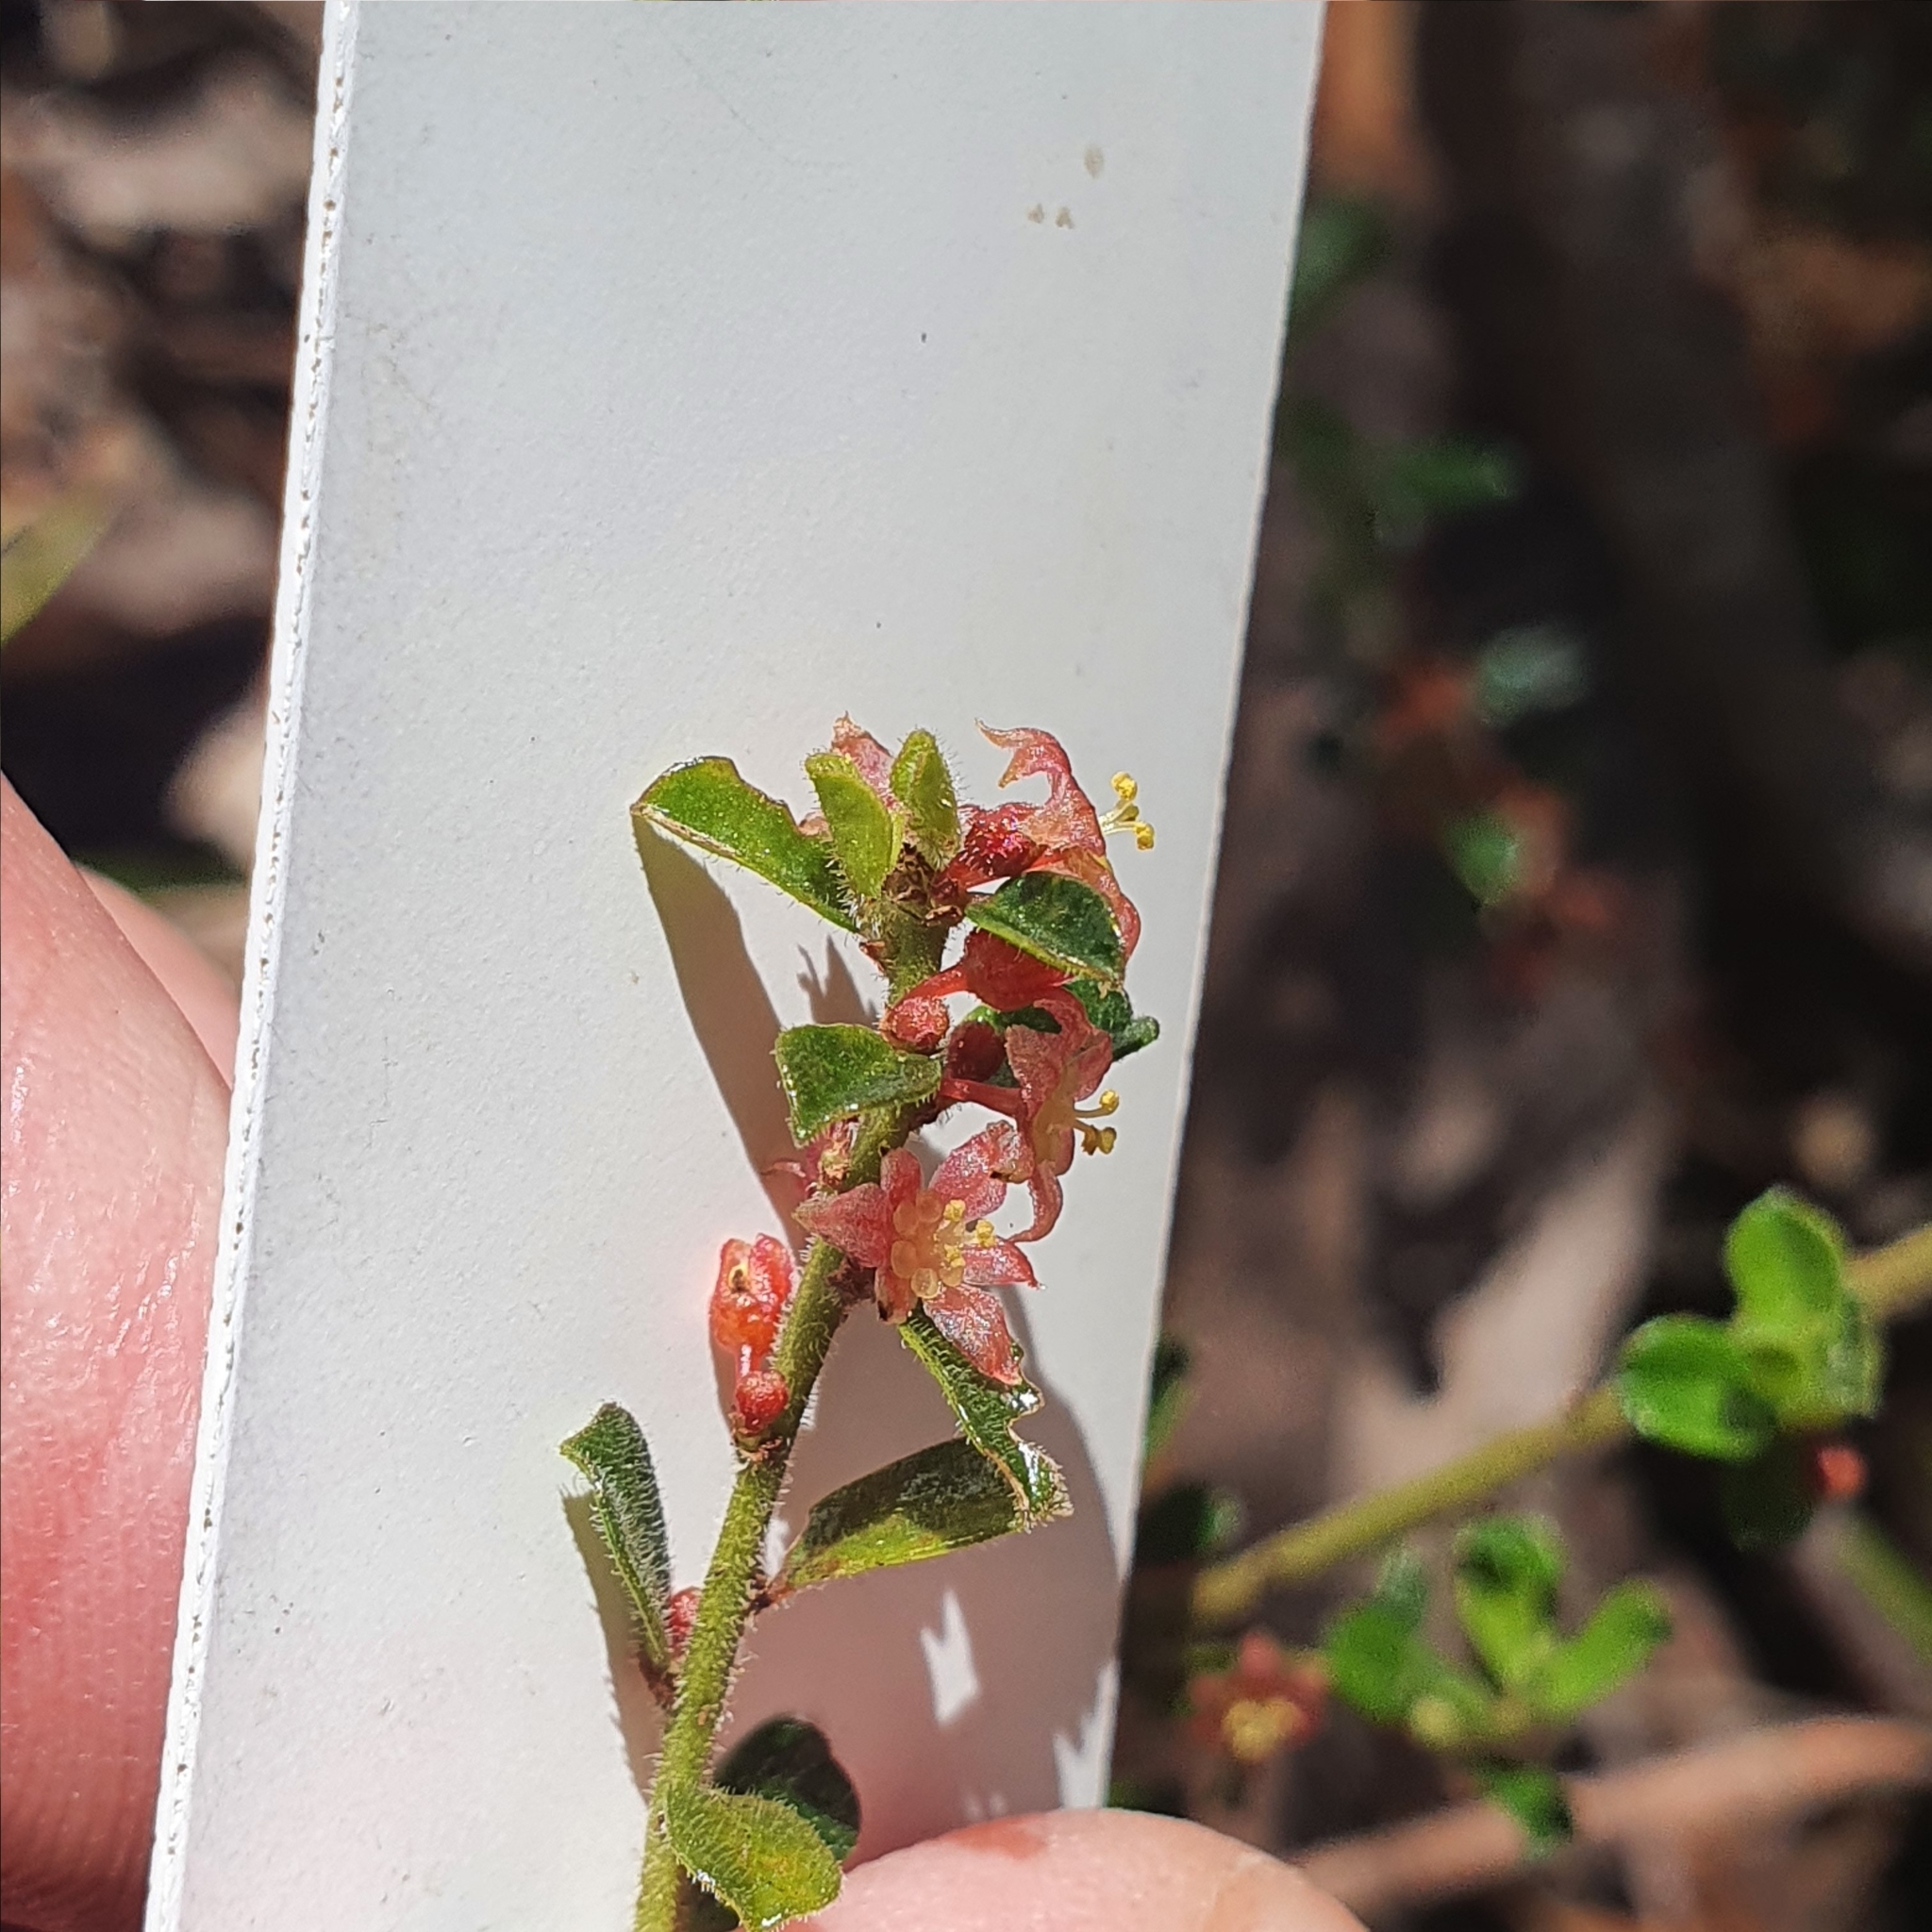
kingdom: Plantae
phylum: Tracheophyta
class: Magnoliopsida
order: Malpighiales
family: Phyllanthaceae
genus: Phyllanthus
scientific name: Phyllanthus hirtellus
